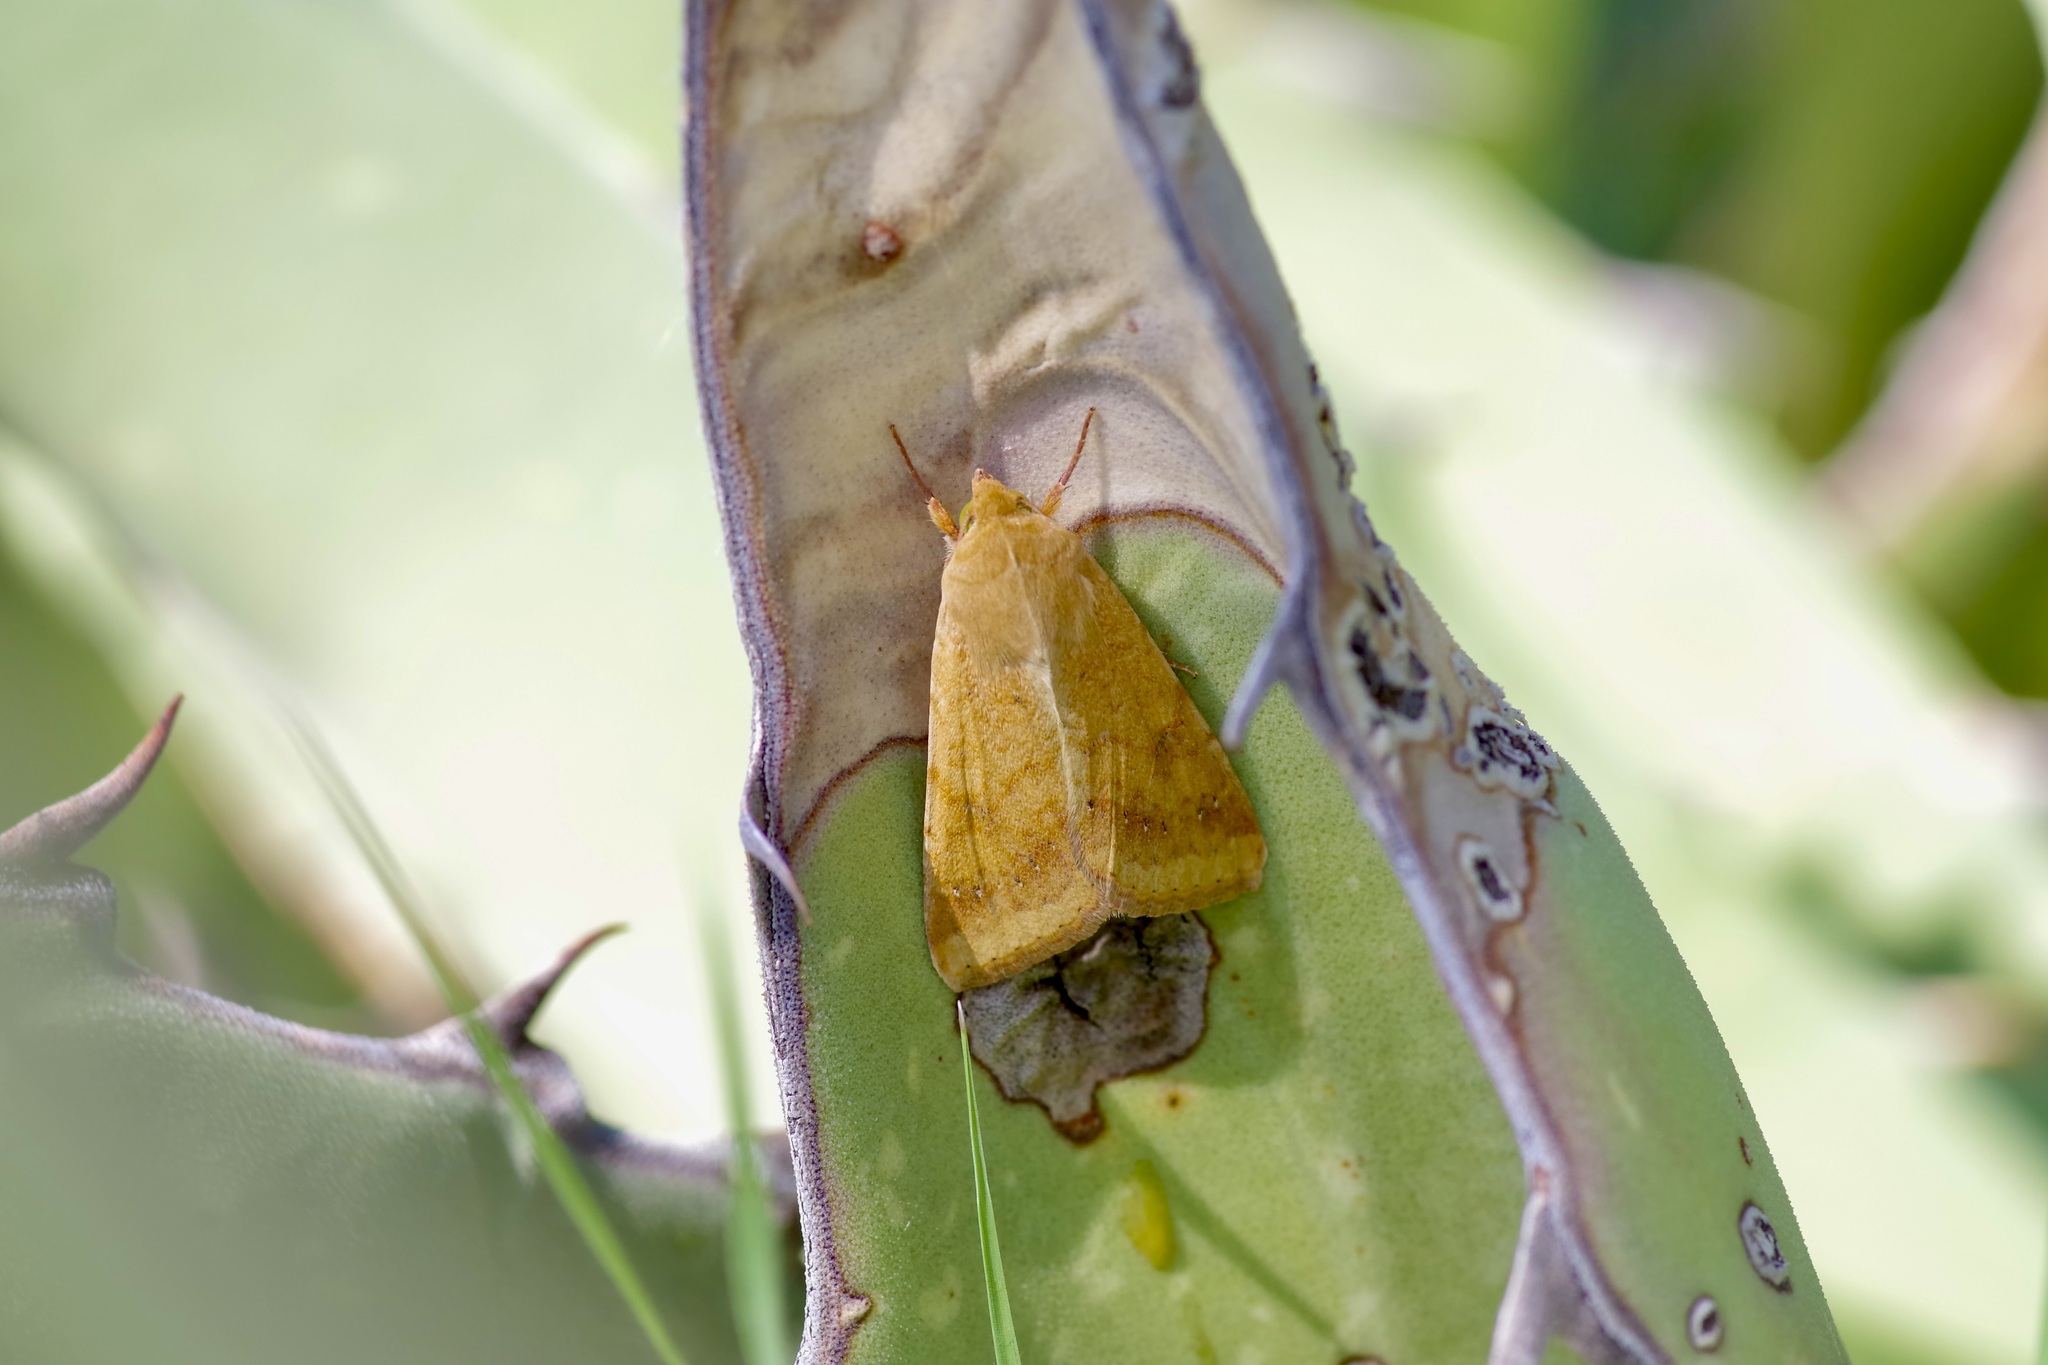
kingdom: Animalia
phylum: Arthropoda
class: Insecta
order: Lepidoptera
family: Noctuidae
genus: Helicoverpa
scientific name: Helicoverpa zea
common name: Bollworm
